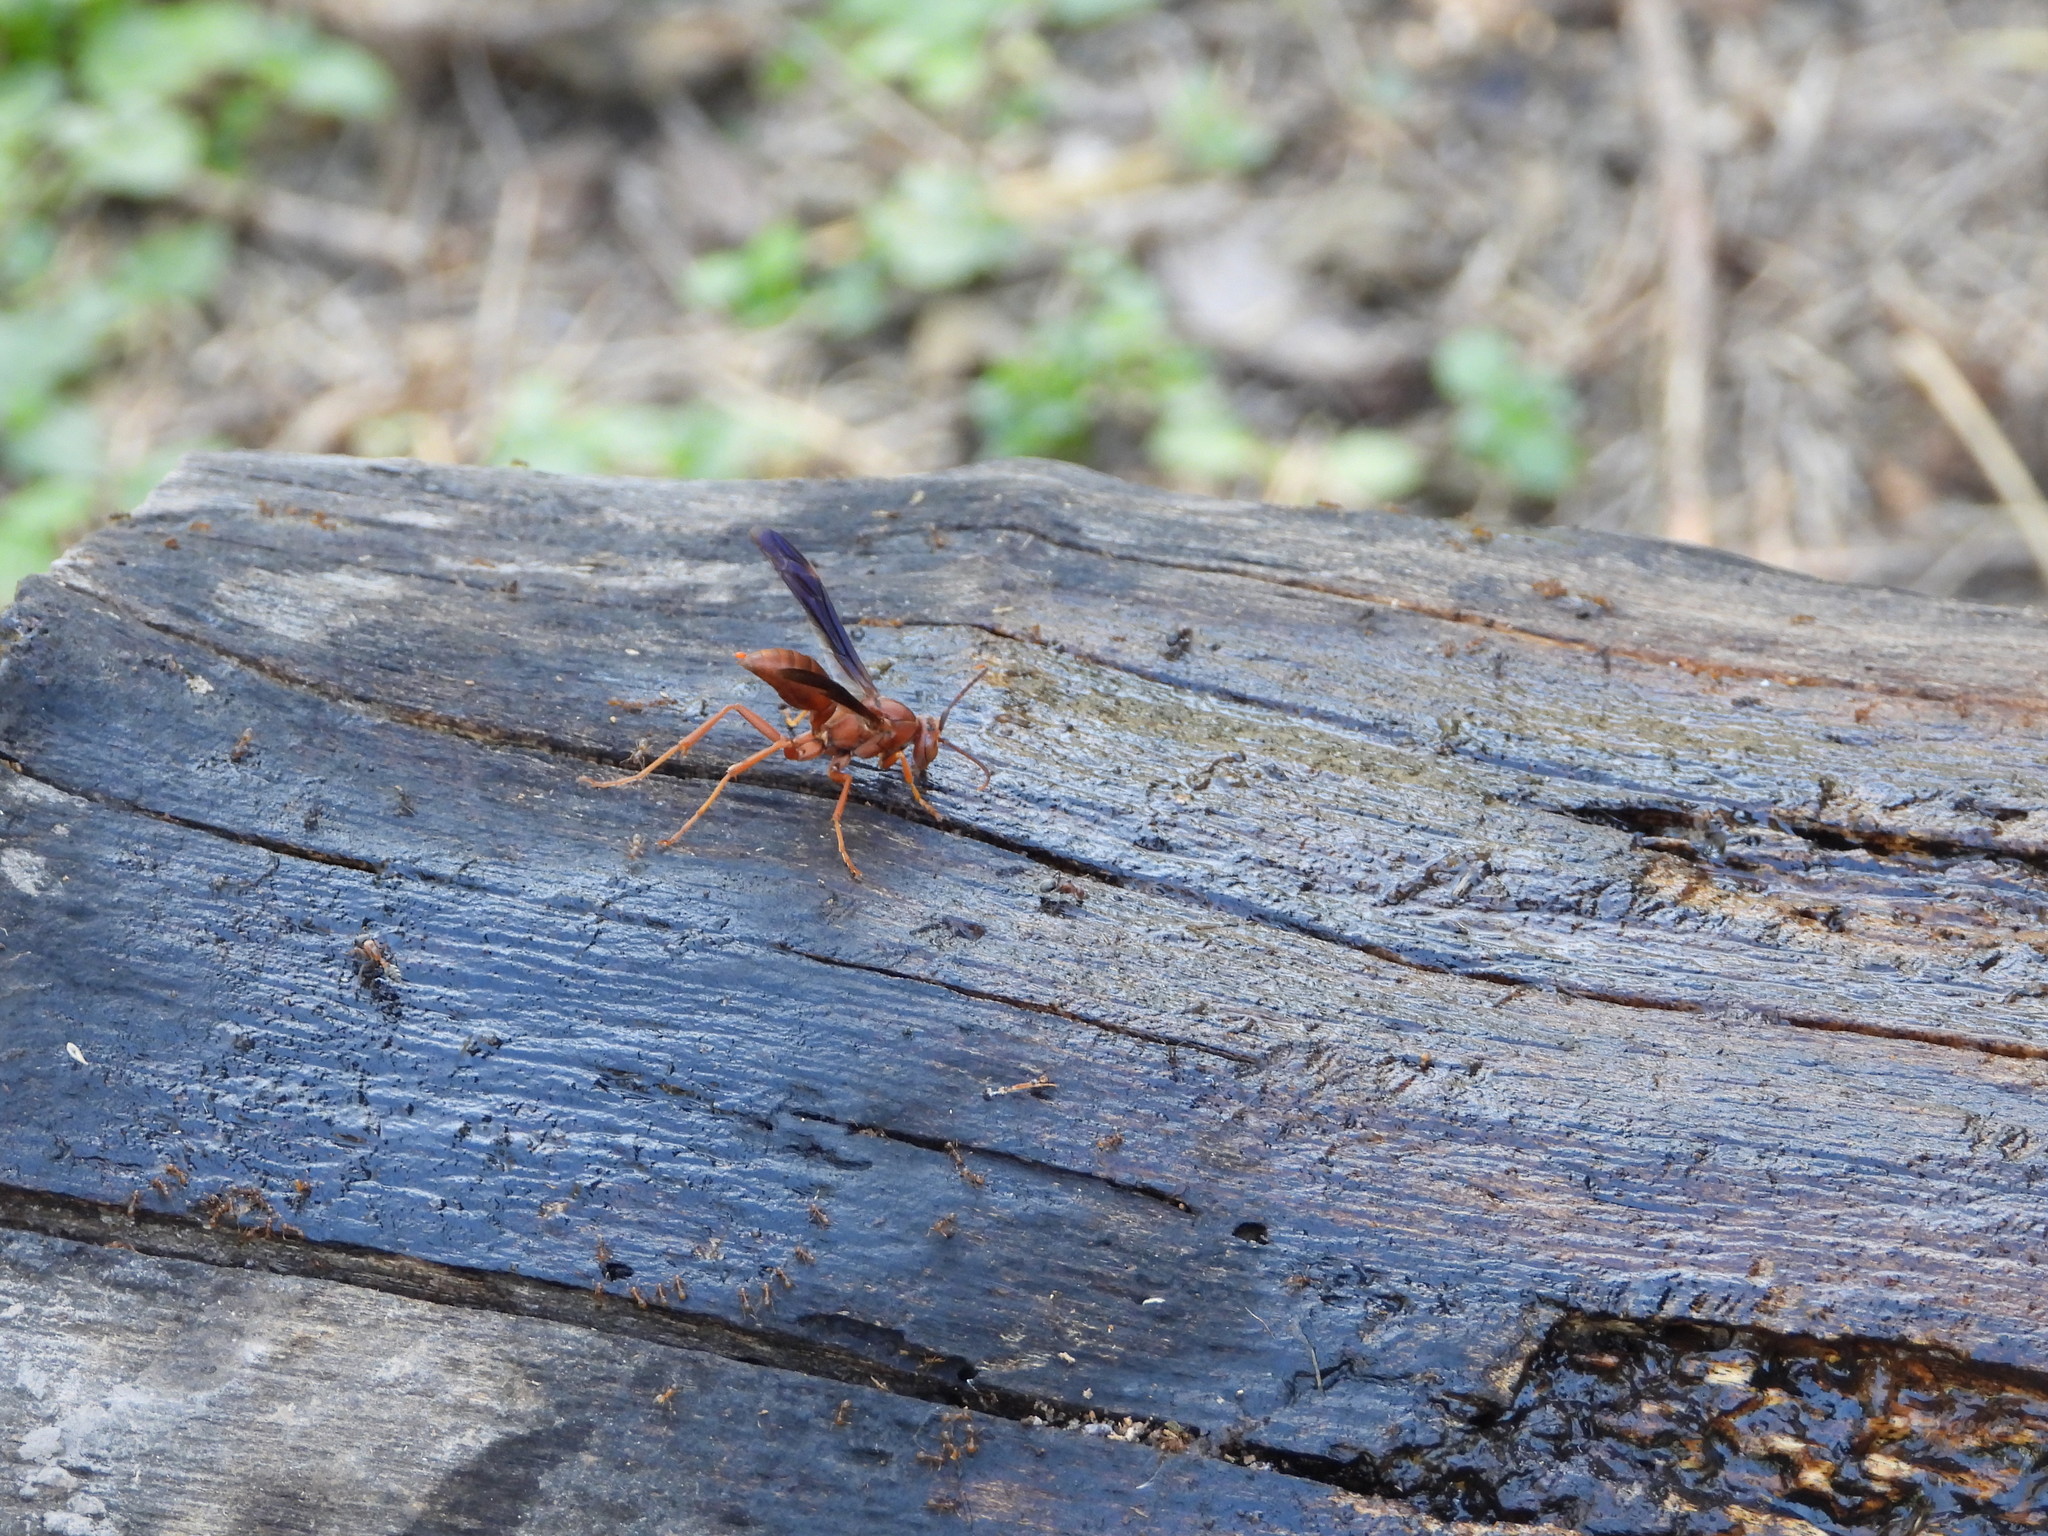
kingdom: Animalia
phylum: Arthropoda
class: Insecta
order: Hymenoptera
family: Eumenidae
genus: Polistes
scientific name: Polistes carolina
